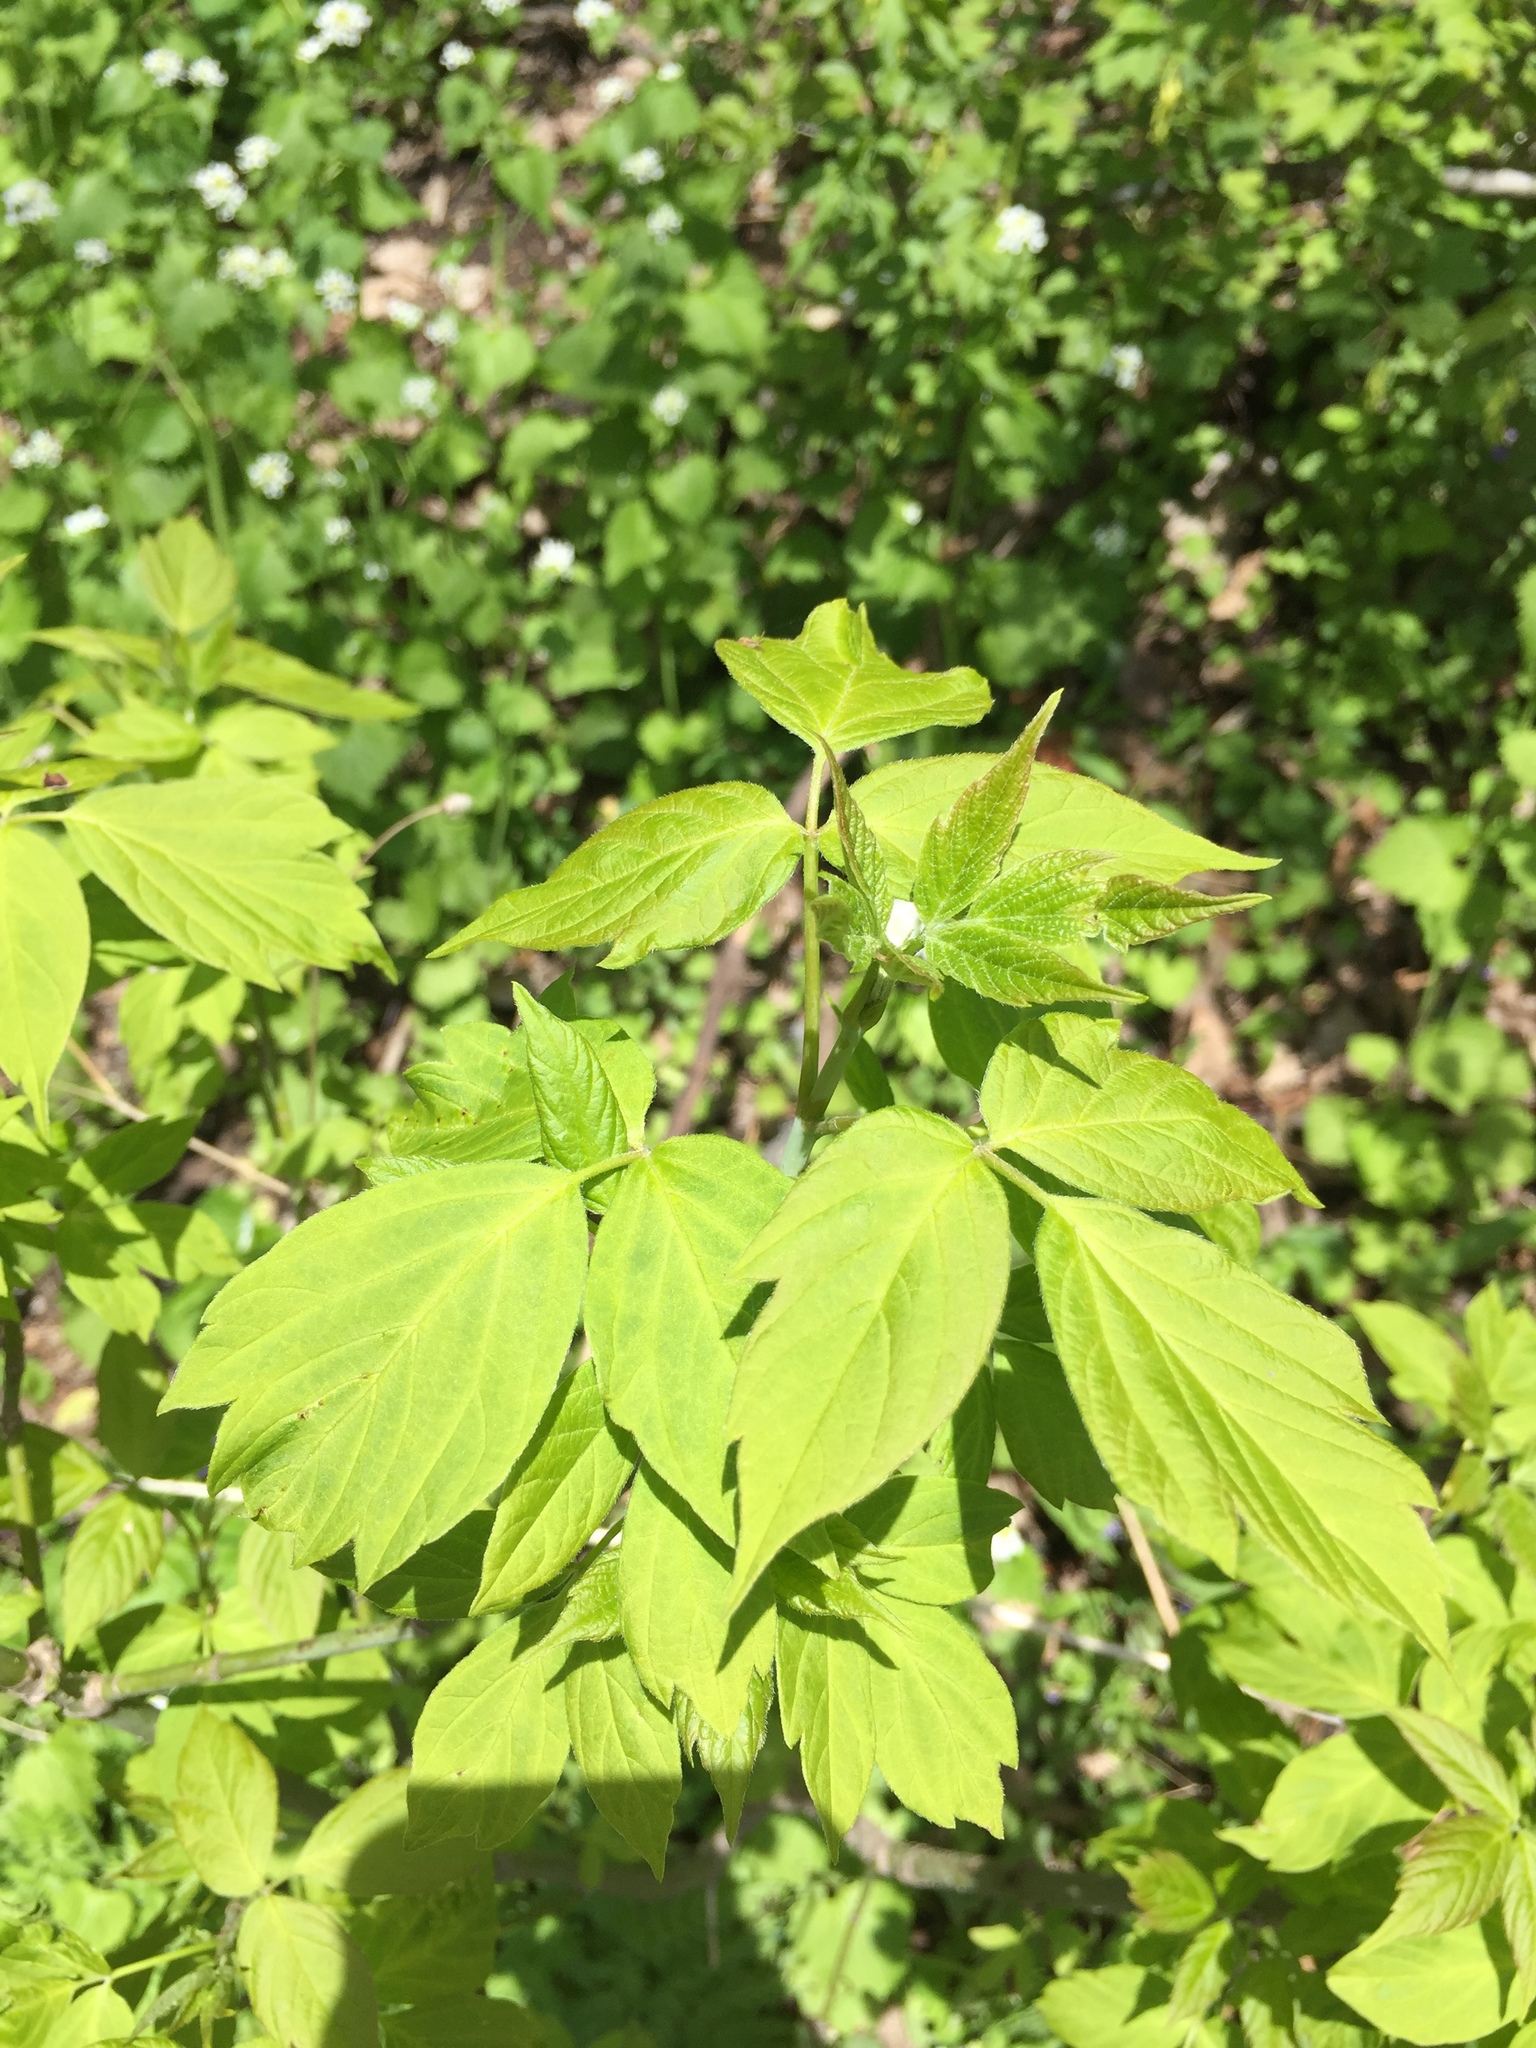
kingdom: Plantae
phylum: Tracheophyta
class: Magnoliopsida
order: Sapindales
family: Sapindaceae
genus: Acer
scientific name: Acer negundo
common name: Ashleaf maple
